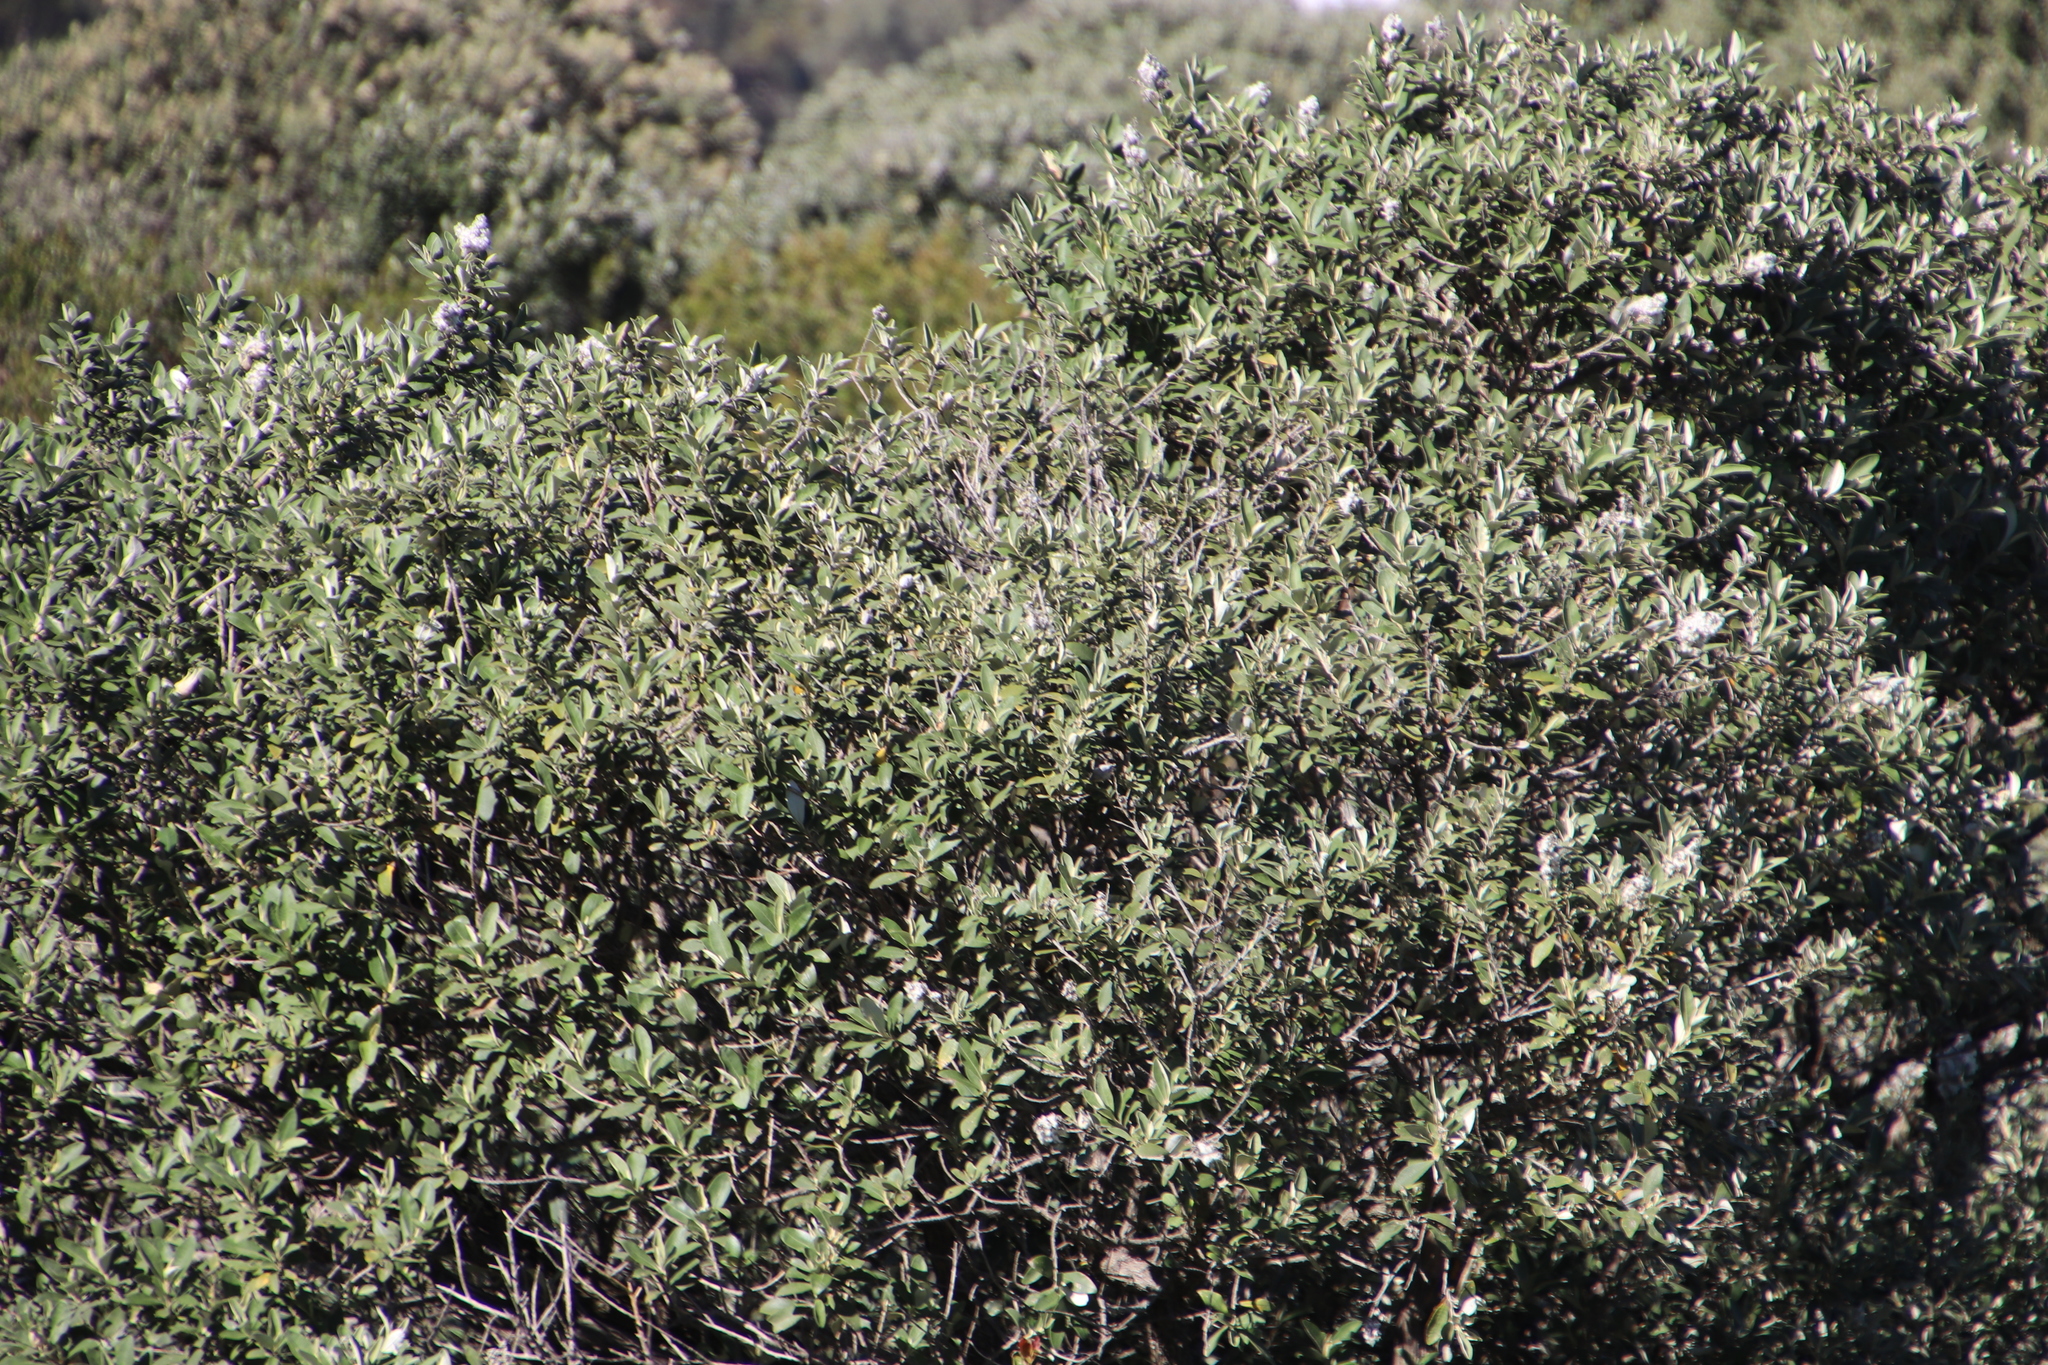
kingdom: Plantae
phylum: Tracheophyta
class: Magnoliopsida
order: Asterales
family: Asteraceae
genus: Tarchonanthus
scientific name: Tarchonanthus littoralis
